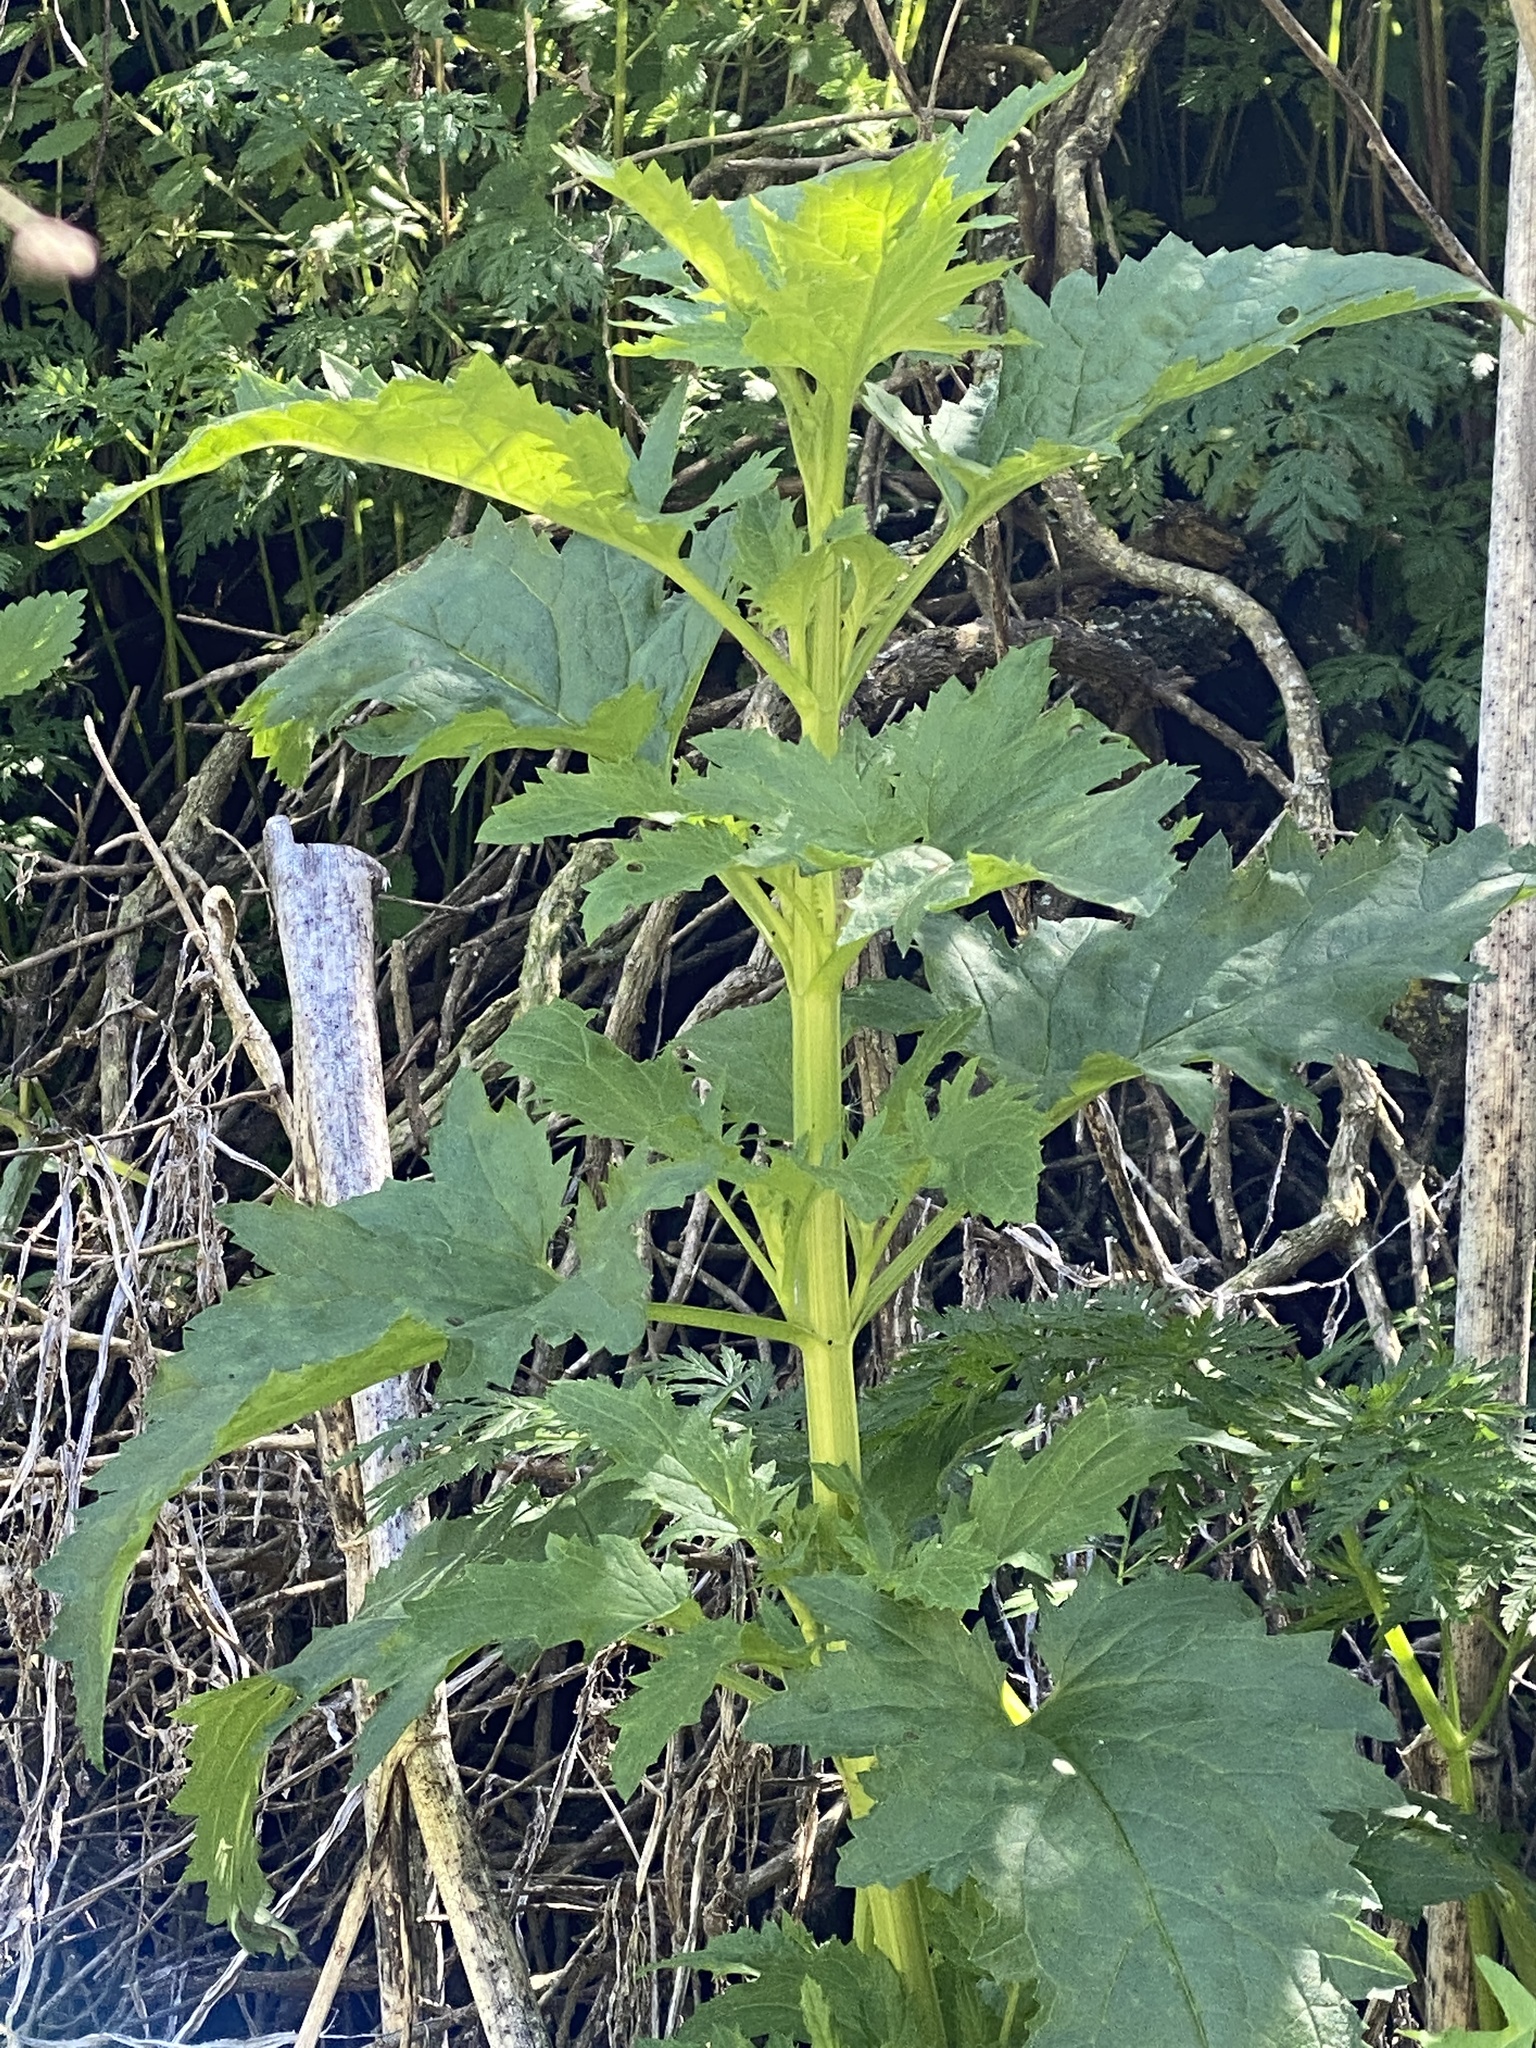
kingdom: Plantae
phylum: Tracheophyta
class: Magnoliopsida
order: Lamiales
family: Scrophulariaceae
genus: Scrophularia
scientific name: Scrophularia californica
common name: California figwort
